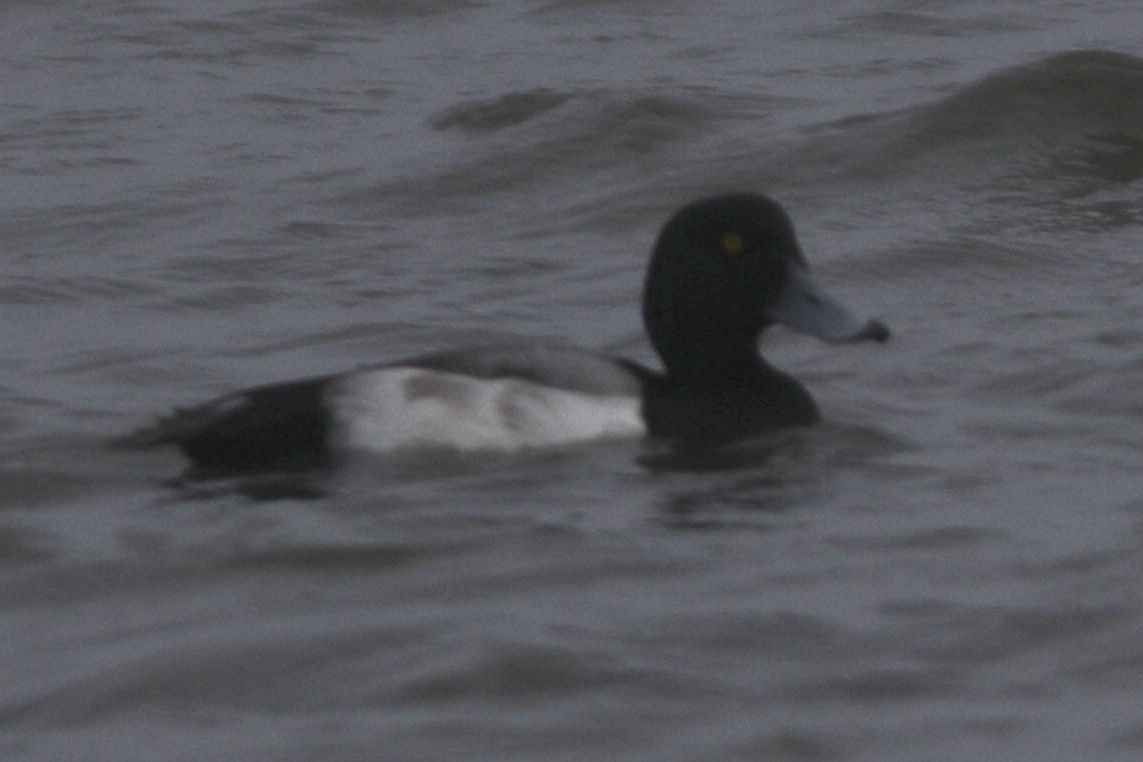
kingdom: Animalia
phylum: Chordata
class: Aves
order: Anseriformes
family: Anatidae
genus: Aythya
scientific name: Aythya marila
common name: Greater scaup
